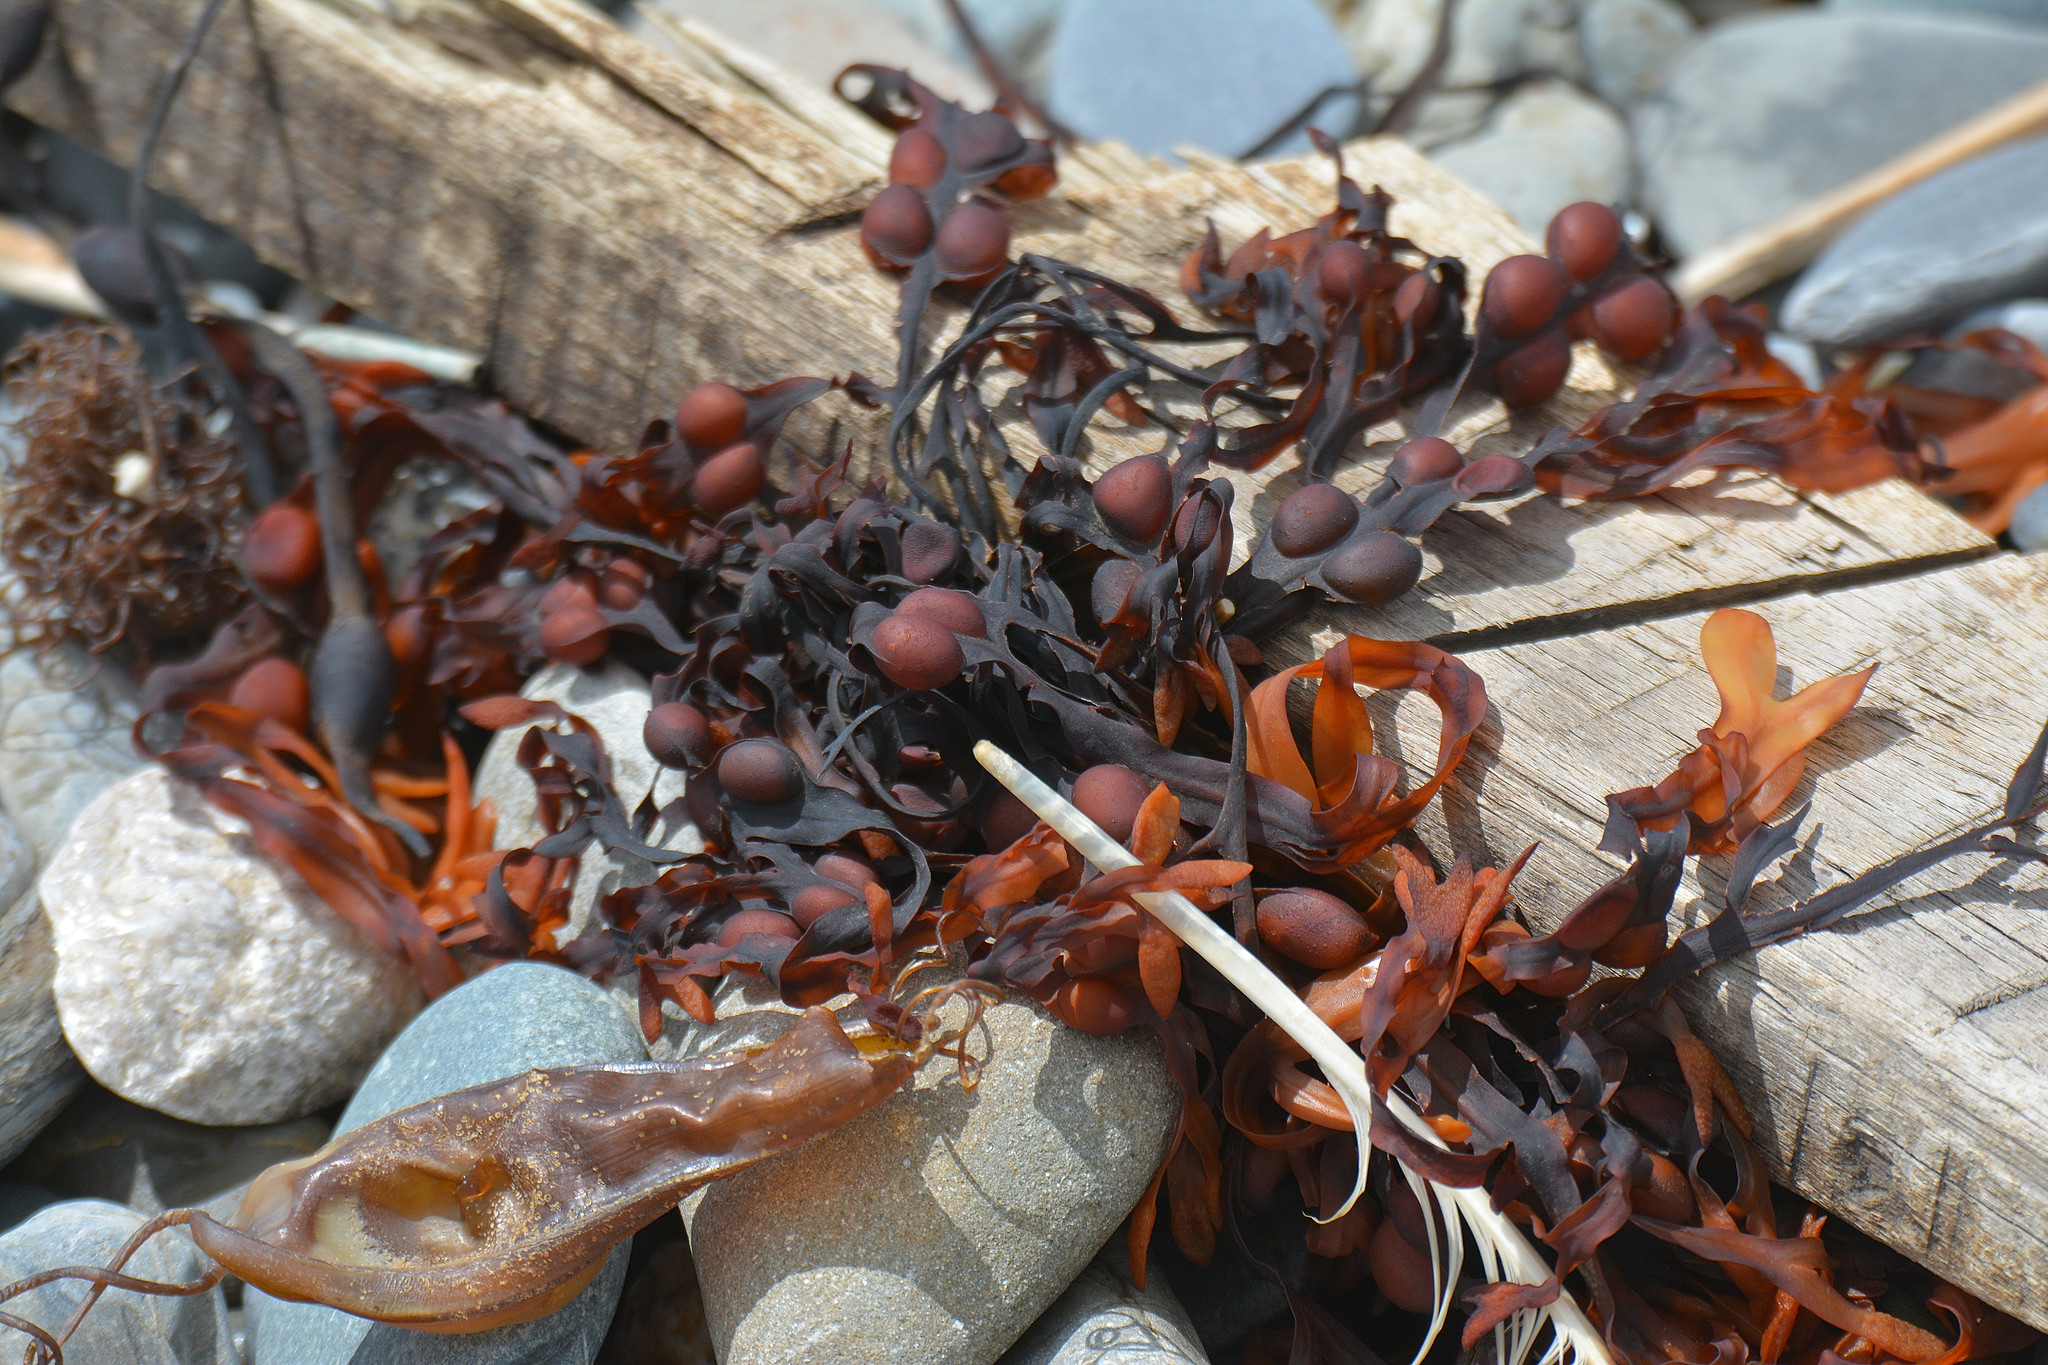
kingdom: Chromista
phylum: Ochrophyta
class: Phaeophyceae
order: Fucales
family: Fucaceae
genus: Fucus
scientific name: Fucus vesiculosus
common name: Bladder wrack
